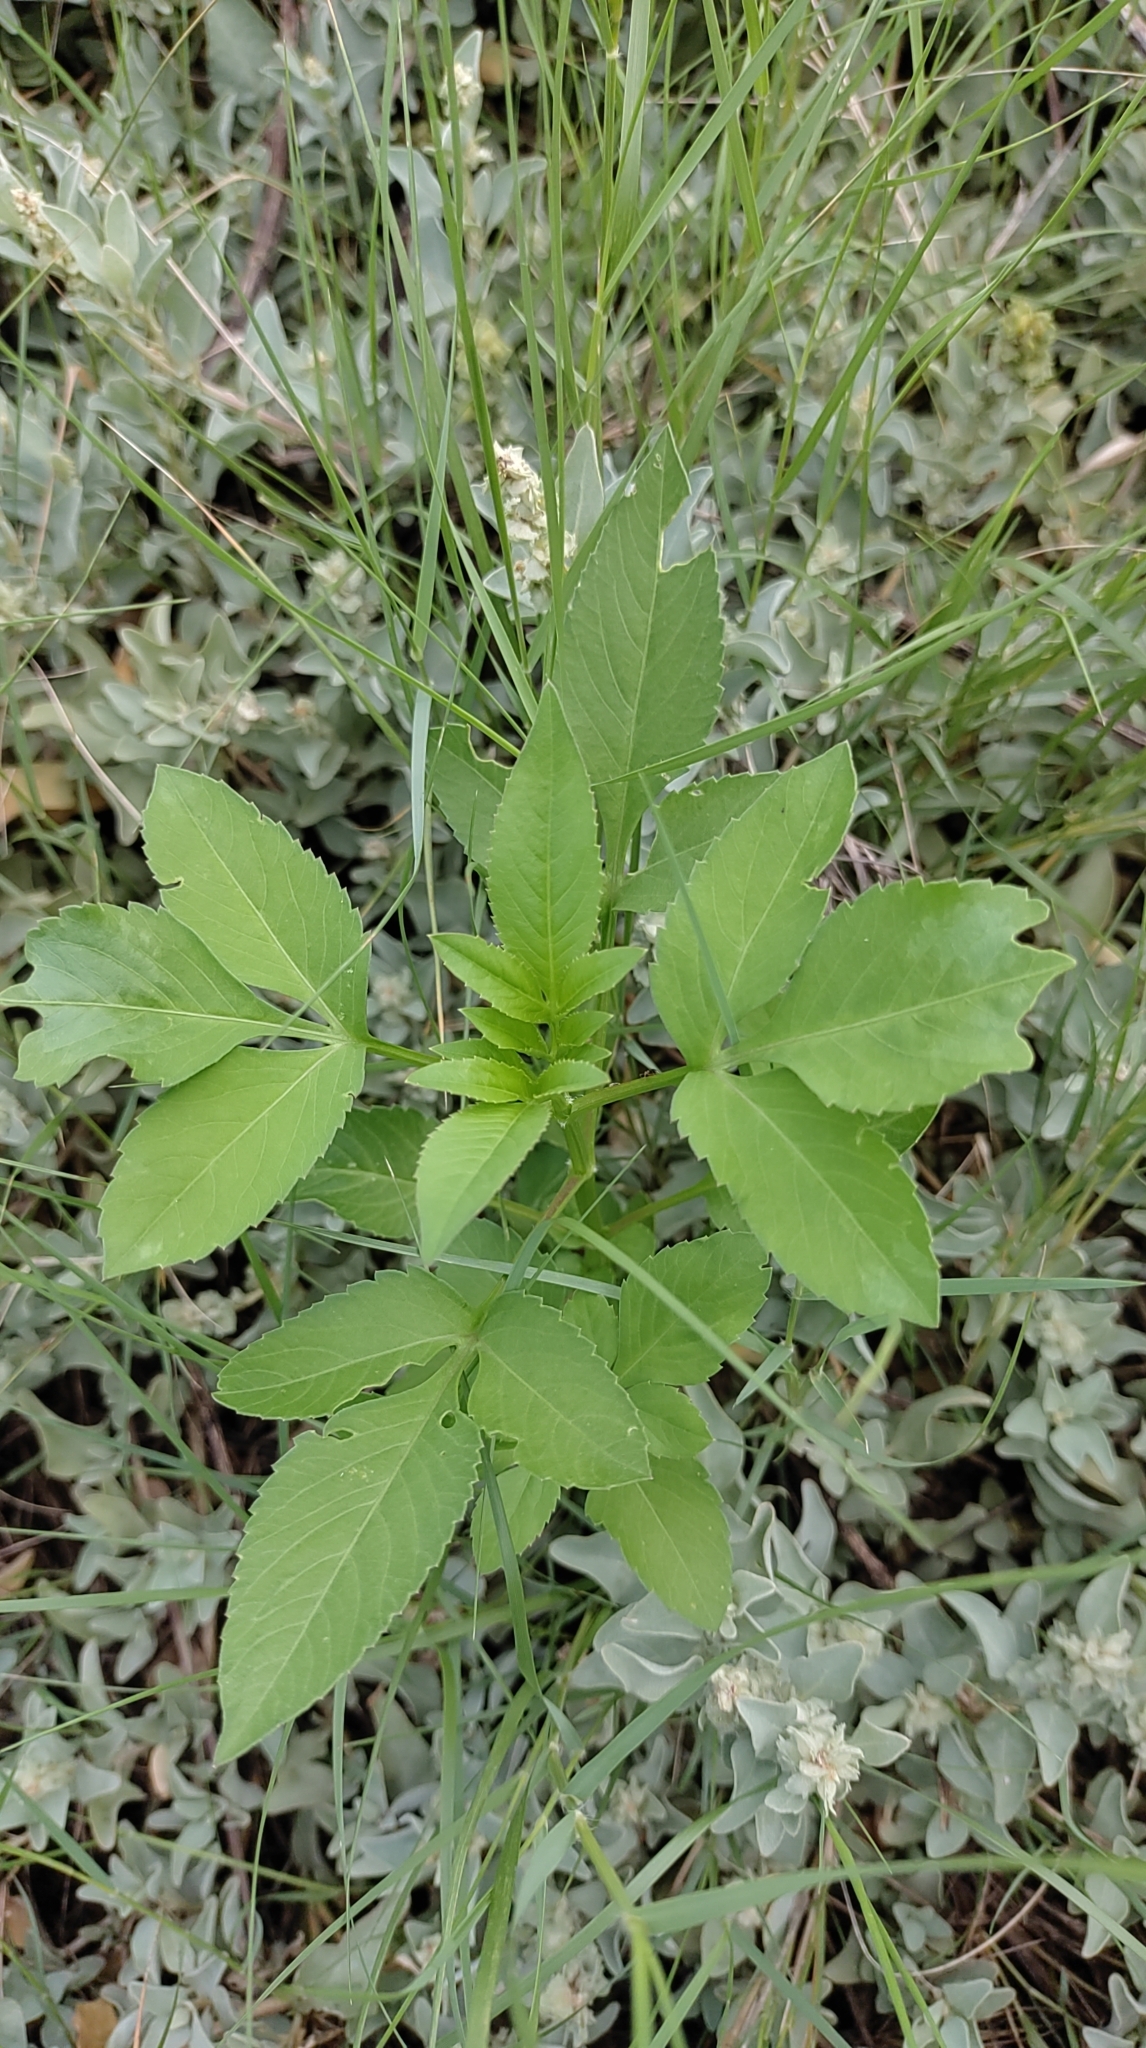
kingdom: Plantae
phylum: Tracheophyta
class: Magnoliopsida
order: Asterales
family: Asteraceae
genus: Bidens
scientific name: Bidens alba
